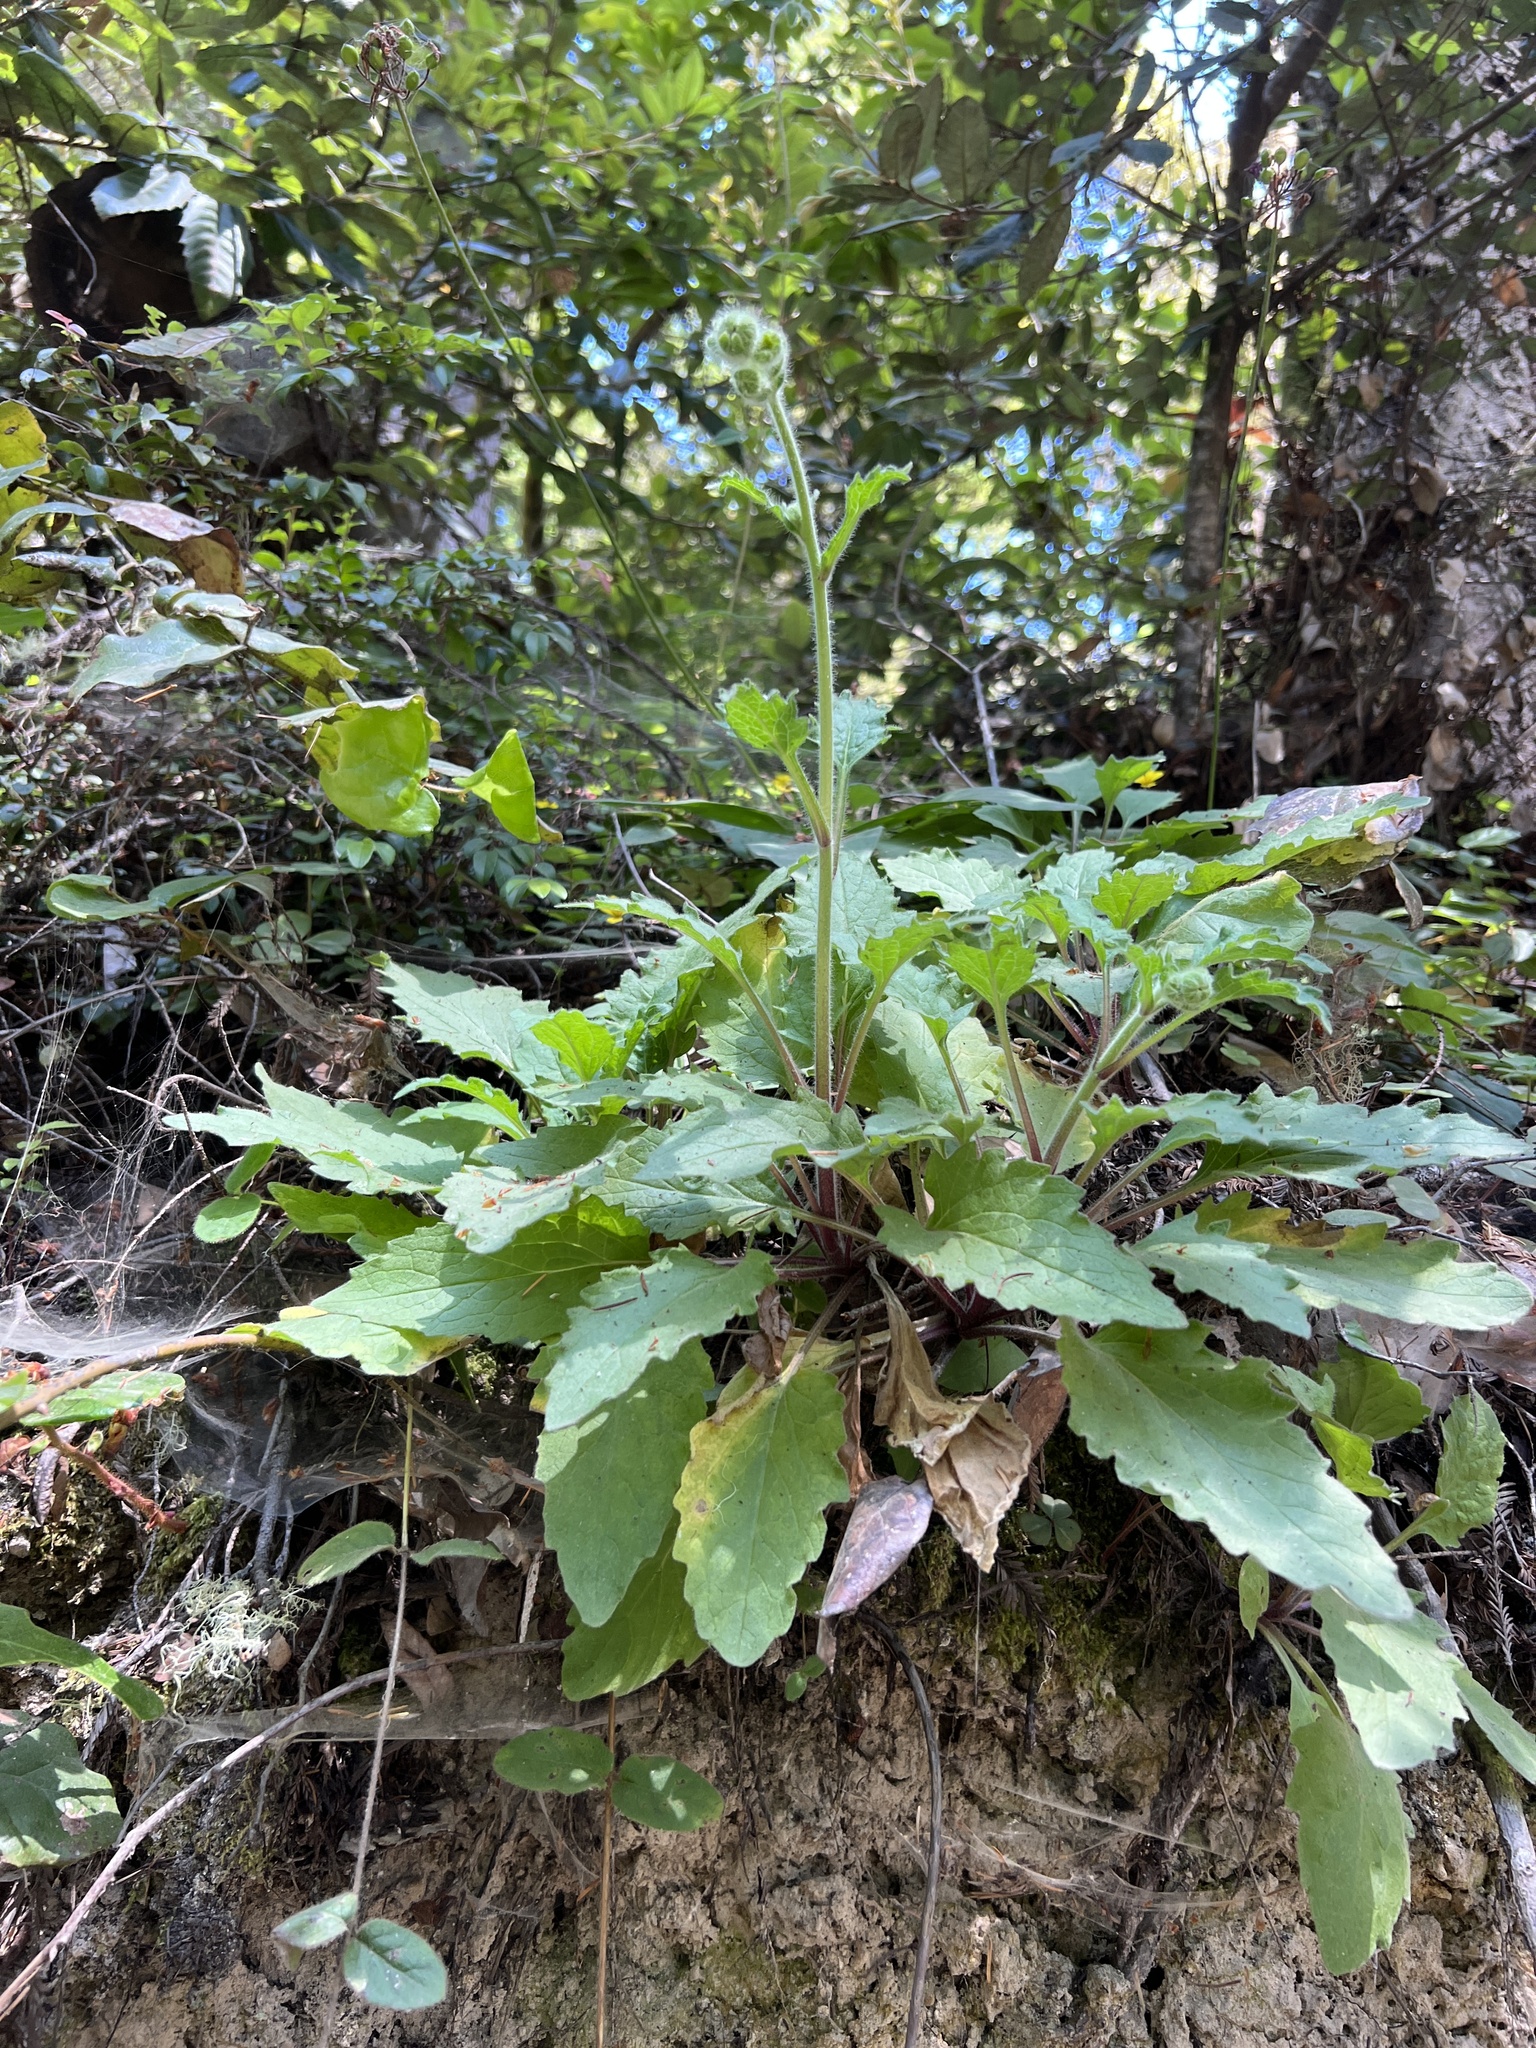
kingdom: Plantae
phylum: Tracheophyta
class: Magnoliopsida
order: Asterales
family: Asteraceae
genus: Arnica
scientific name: Arnica discoidea
